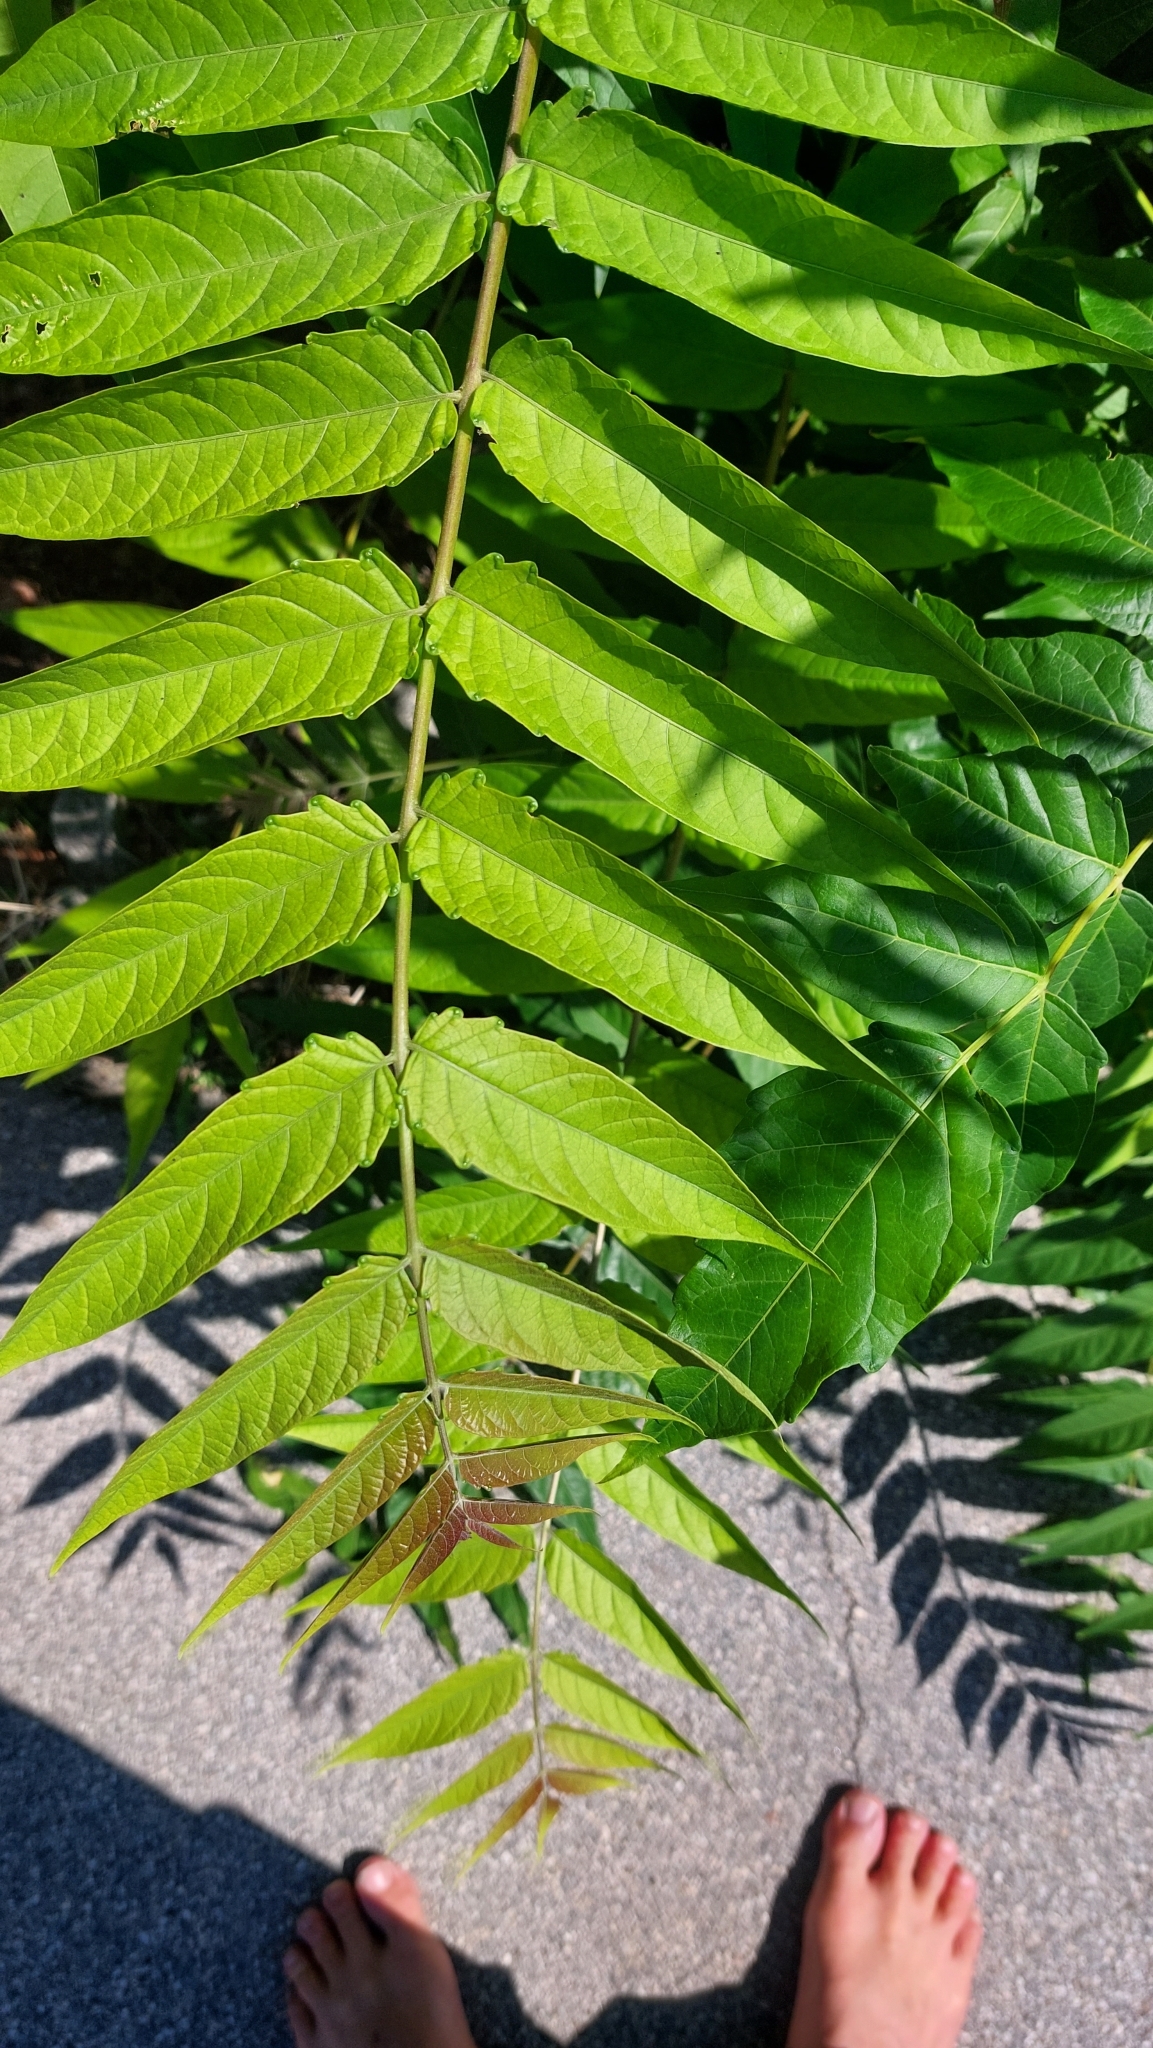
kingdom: Plantae
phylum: Tracheophyta
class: Magnoliopsida
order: Sapindales
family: Simaroubaceae
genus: Ailanthus
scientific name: Ailanthus altissima
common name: Tree-of-heaven
